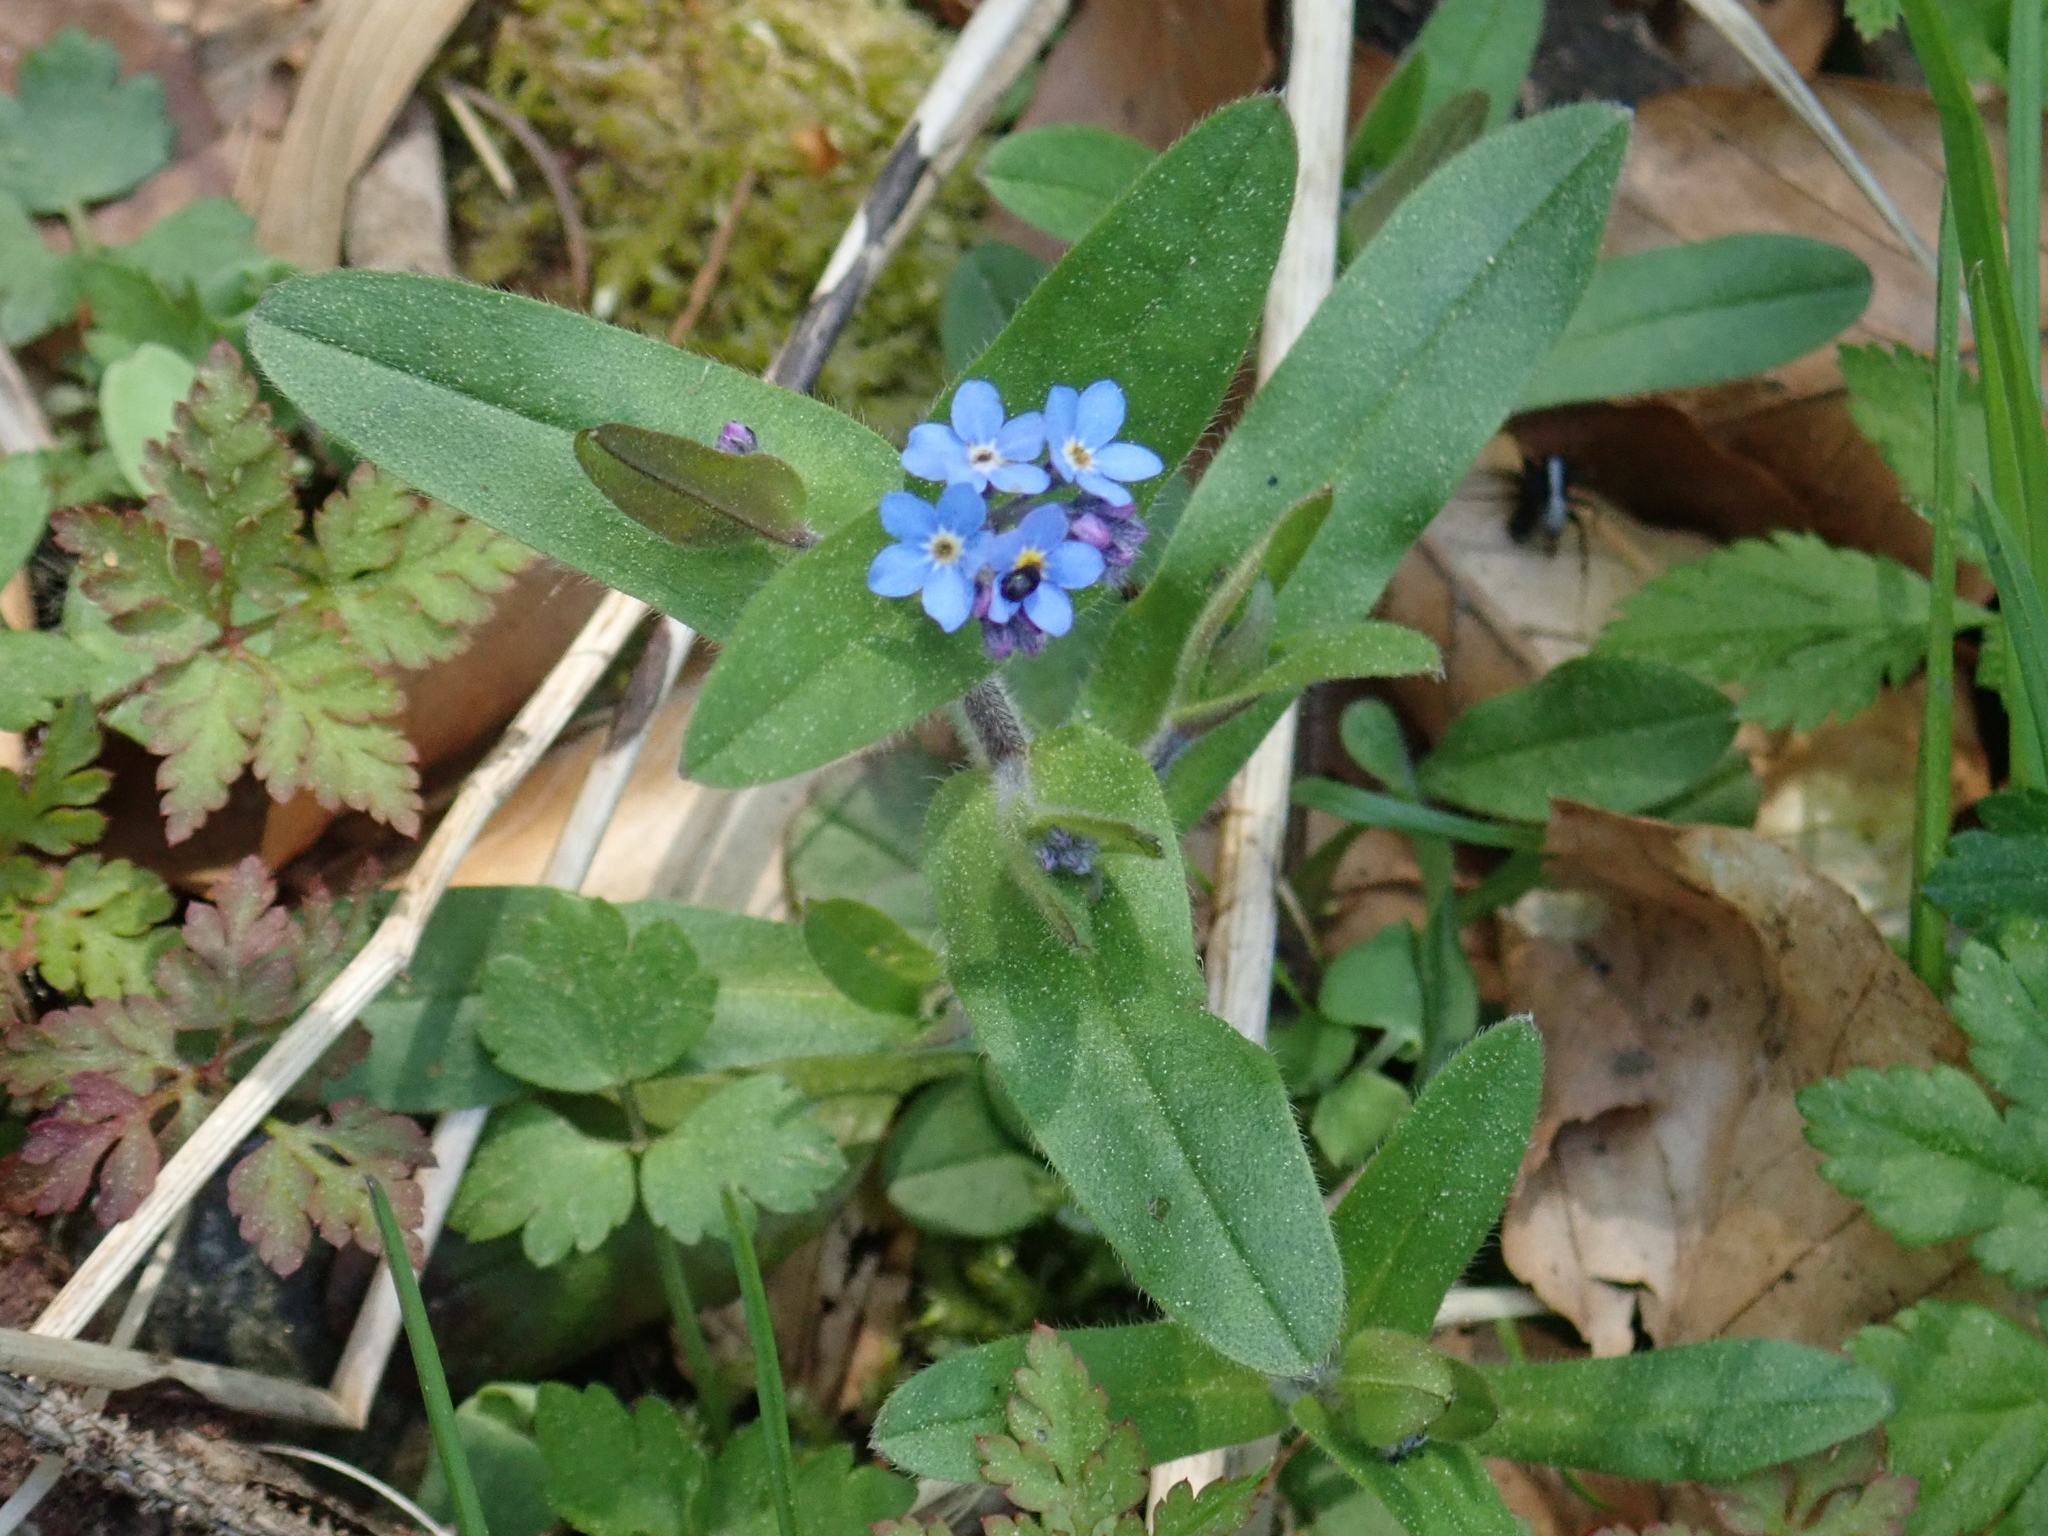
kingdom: Plantae
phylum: Tracheophyta
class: Magnoliopsida
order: Boraginales
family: Boraginaceae
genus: Myosotis
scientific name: Myosotis sylvatica
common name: Wood forget-me-not
